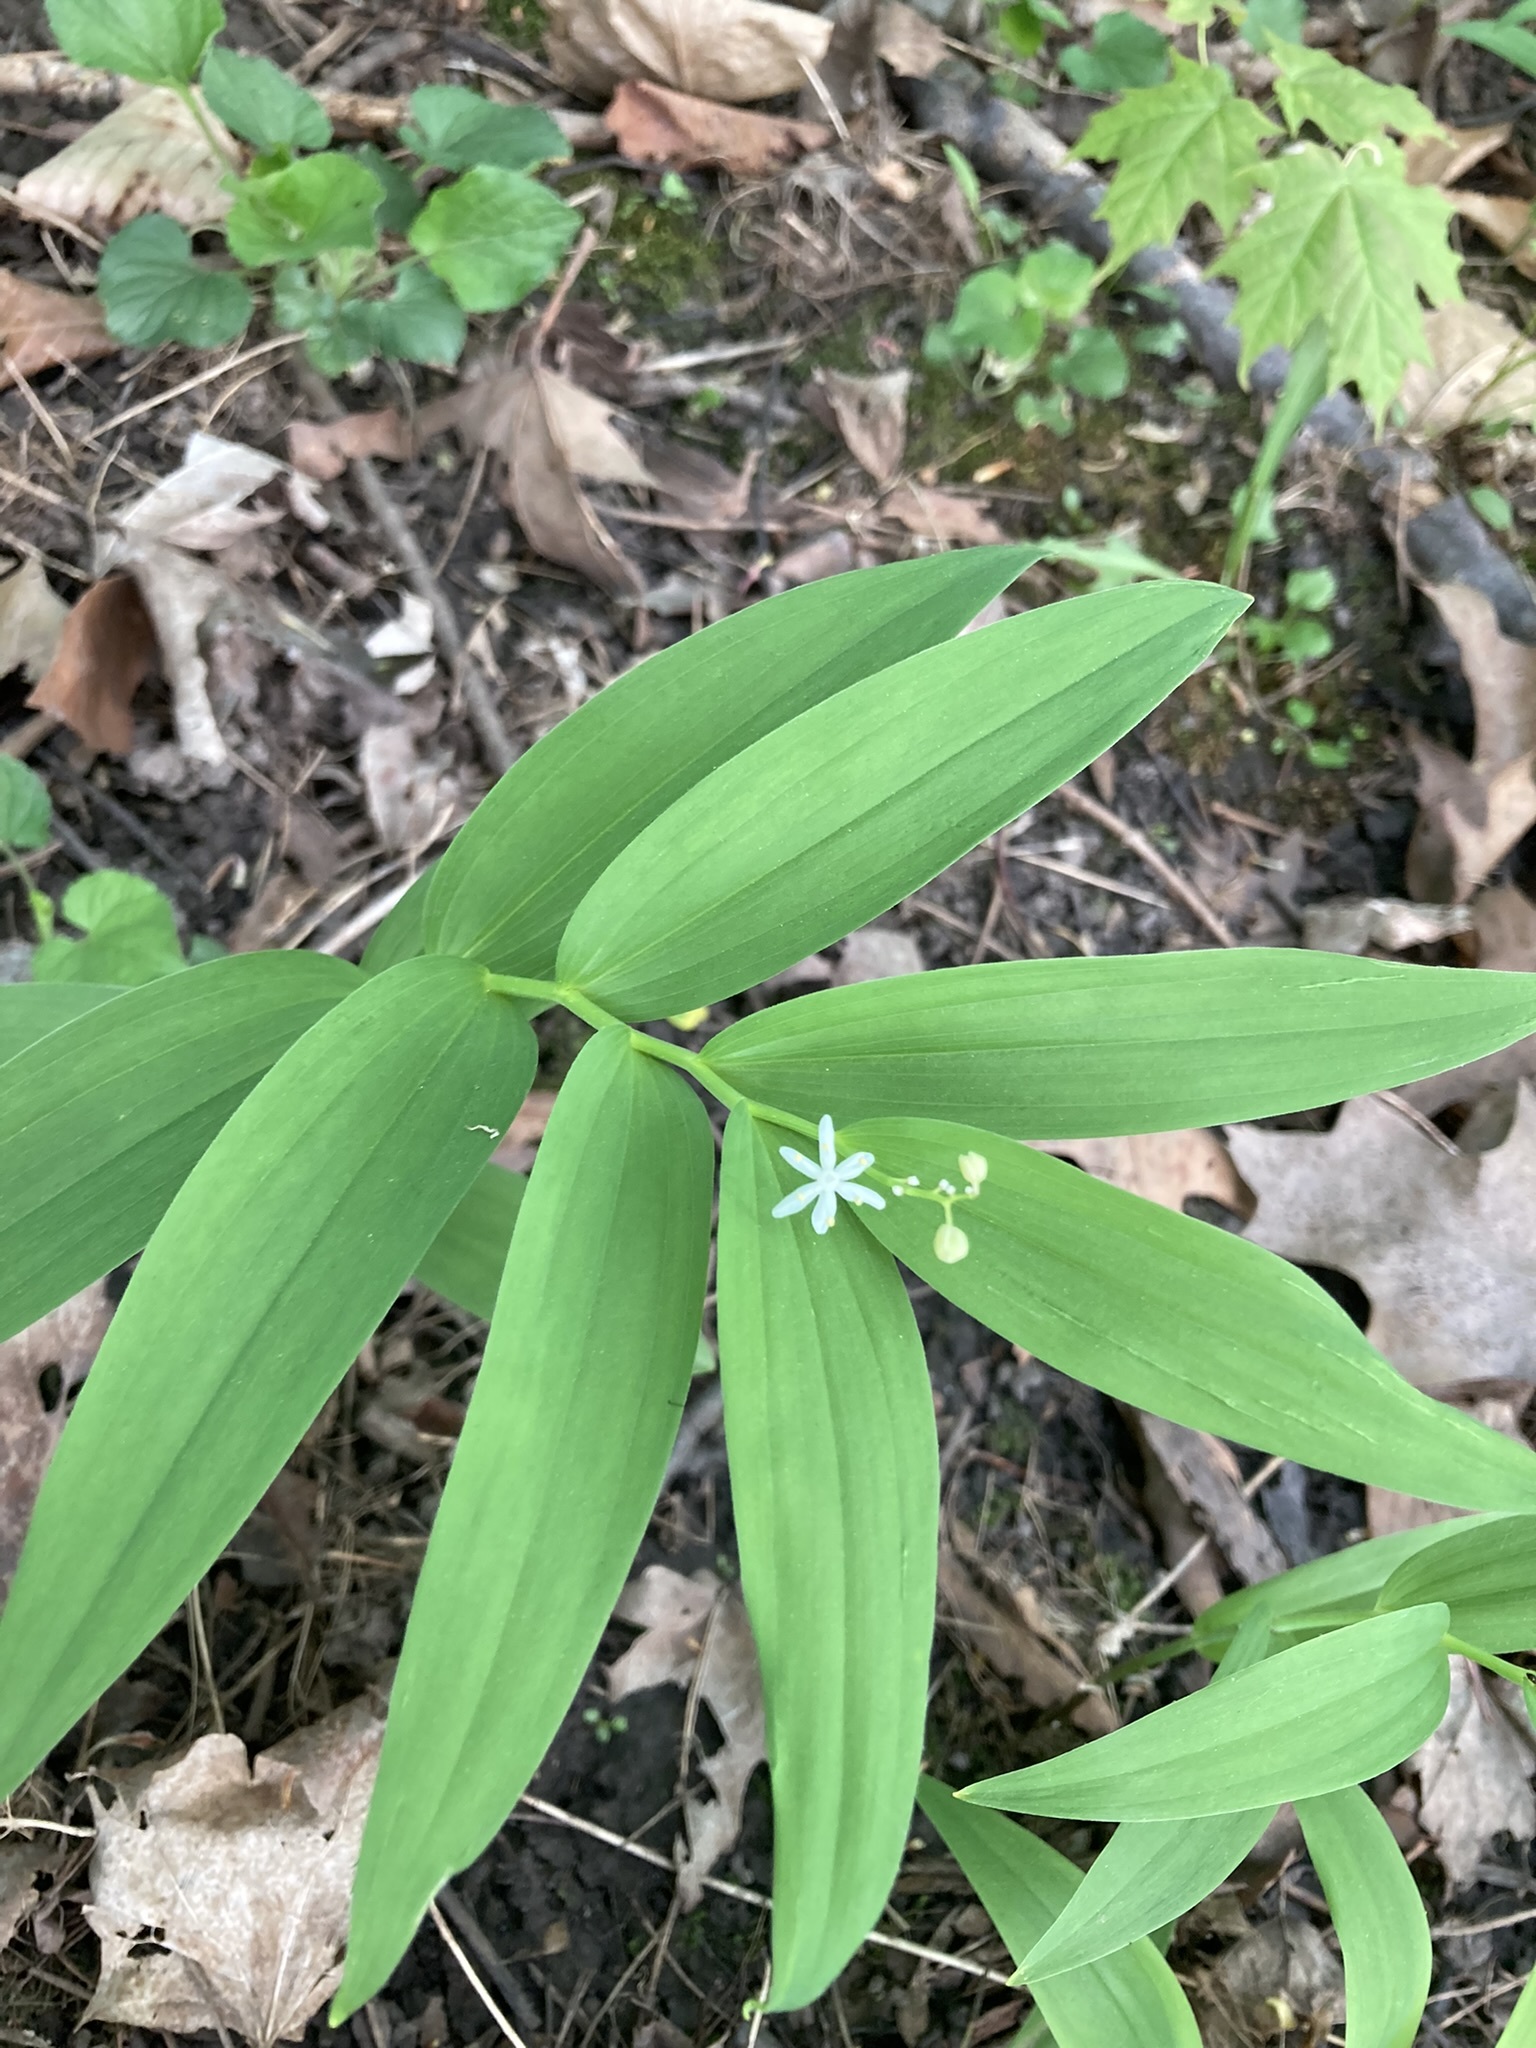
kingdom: Plantae
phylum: Tracheophyta
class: Liliopsida
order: Asparagales
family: Asparagaceae
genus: Maianthemum
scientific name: Maianthemum stellatum
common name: Little false solomon's seal
